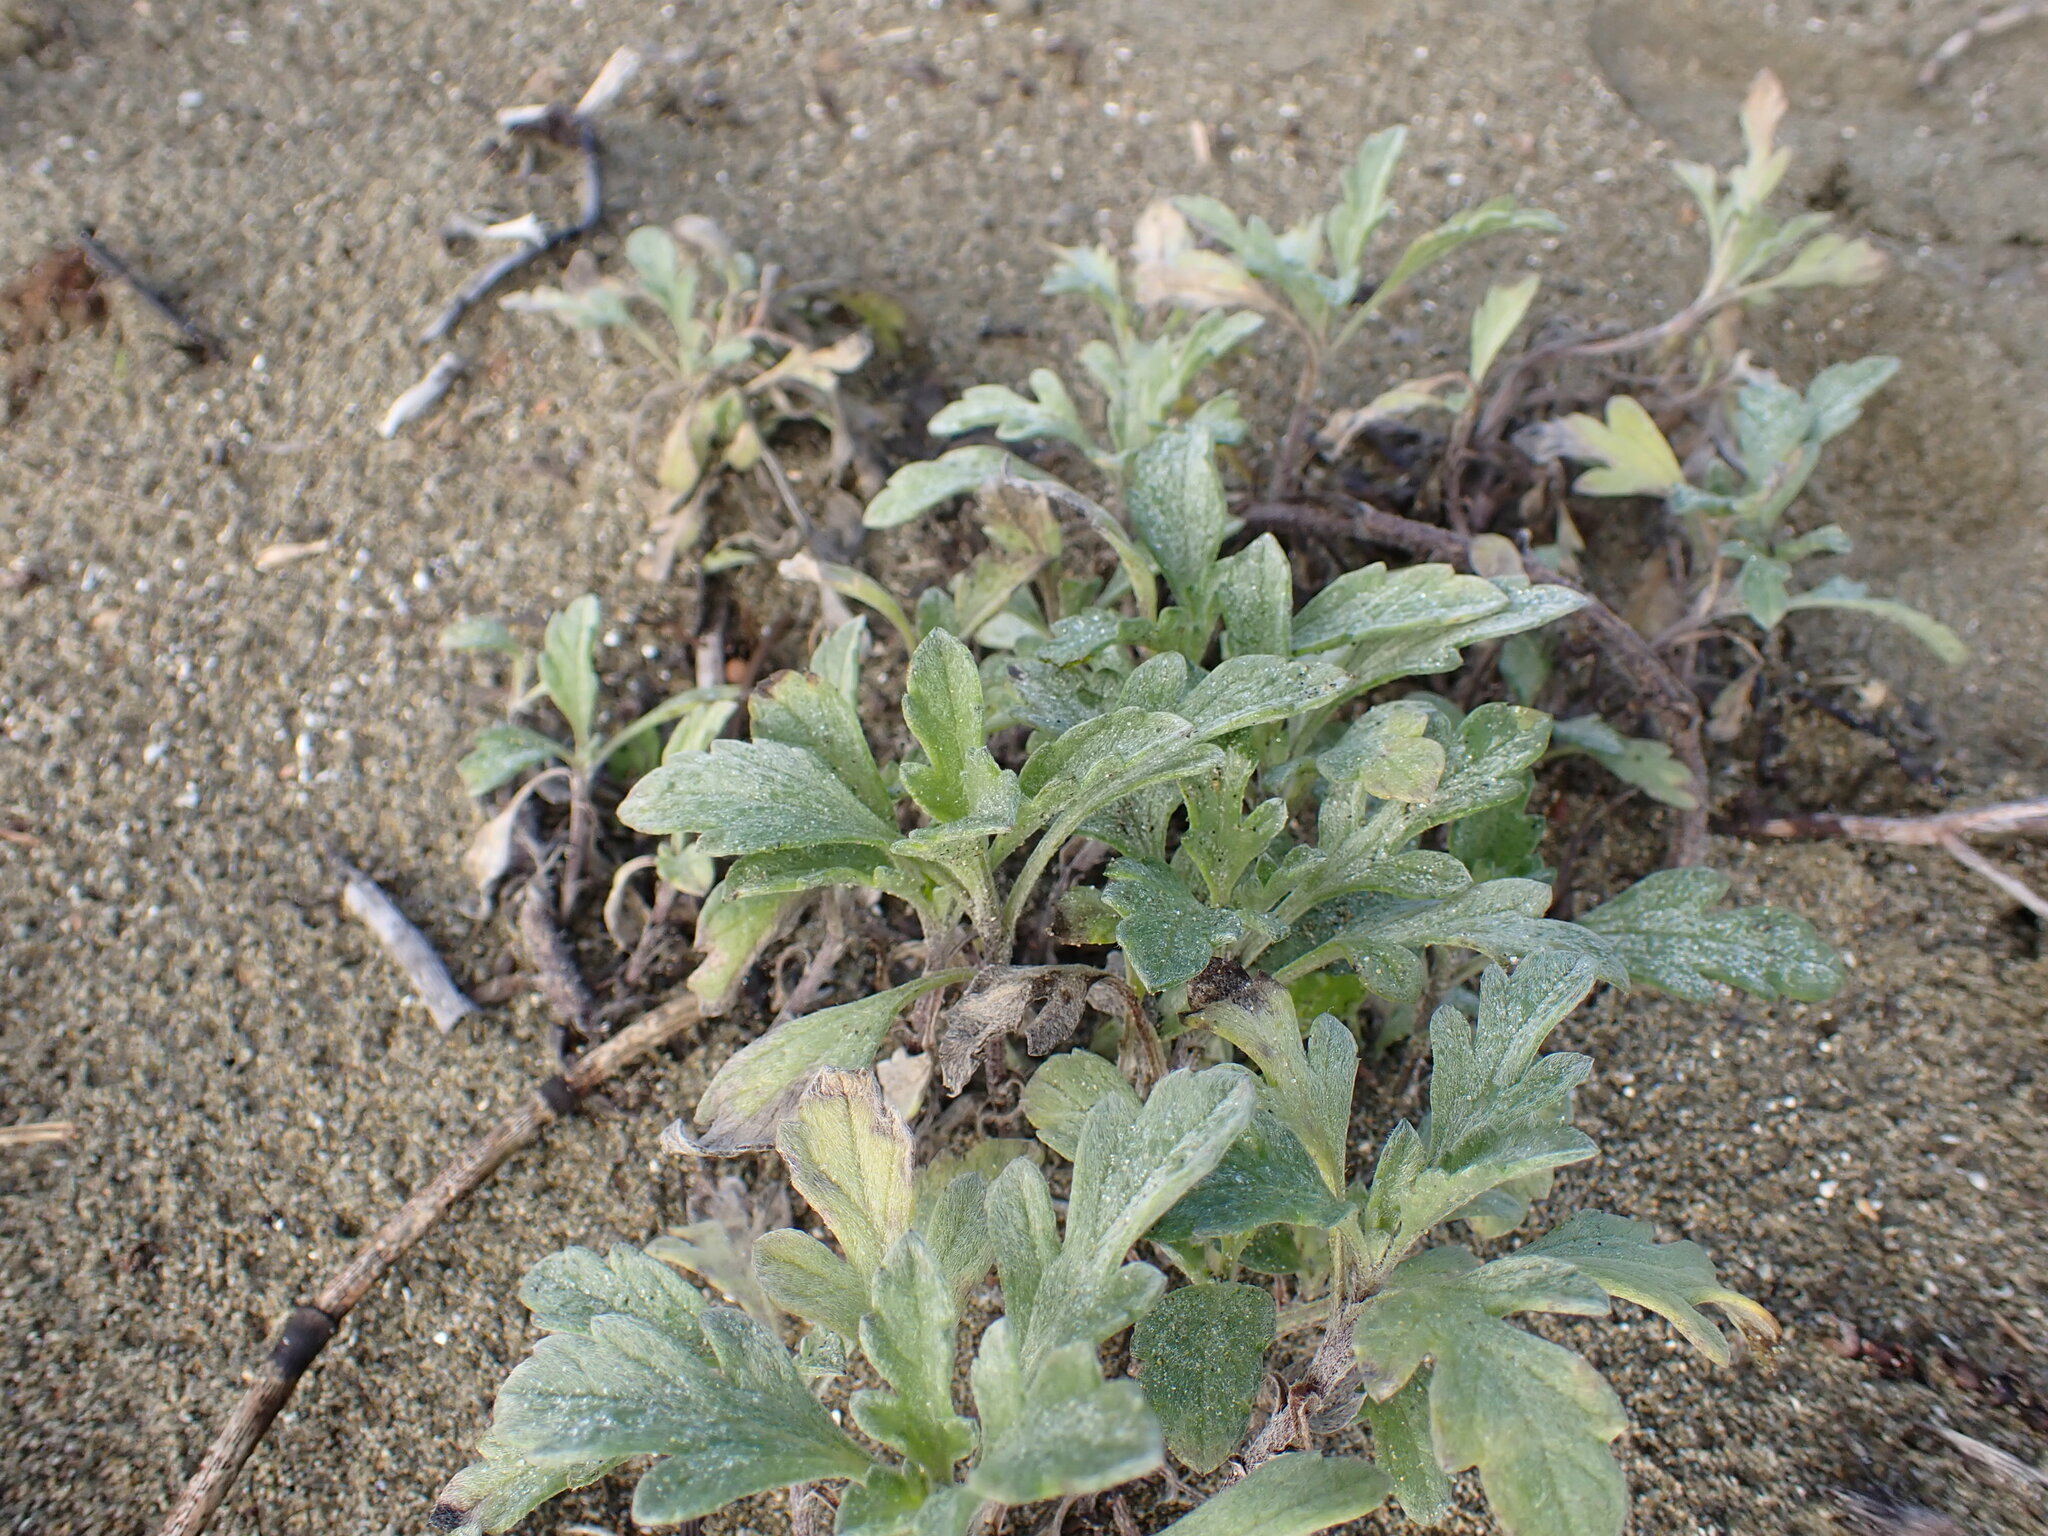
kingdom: Plantae
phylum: Tracheophyta
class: Magnoliopsida
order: Asterales
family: Asteraceae
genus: Ambrosia
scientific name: Ambrosia chamissonis
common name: Beachbur
